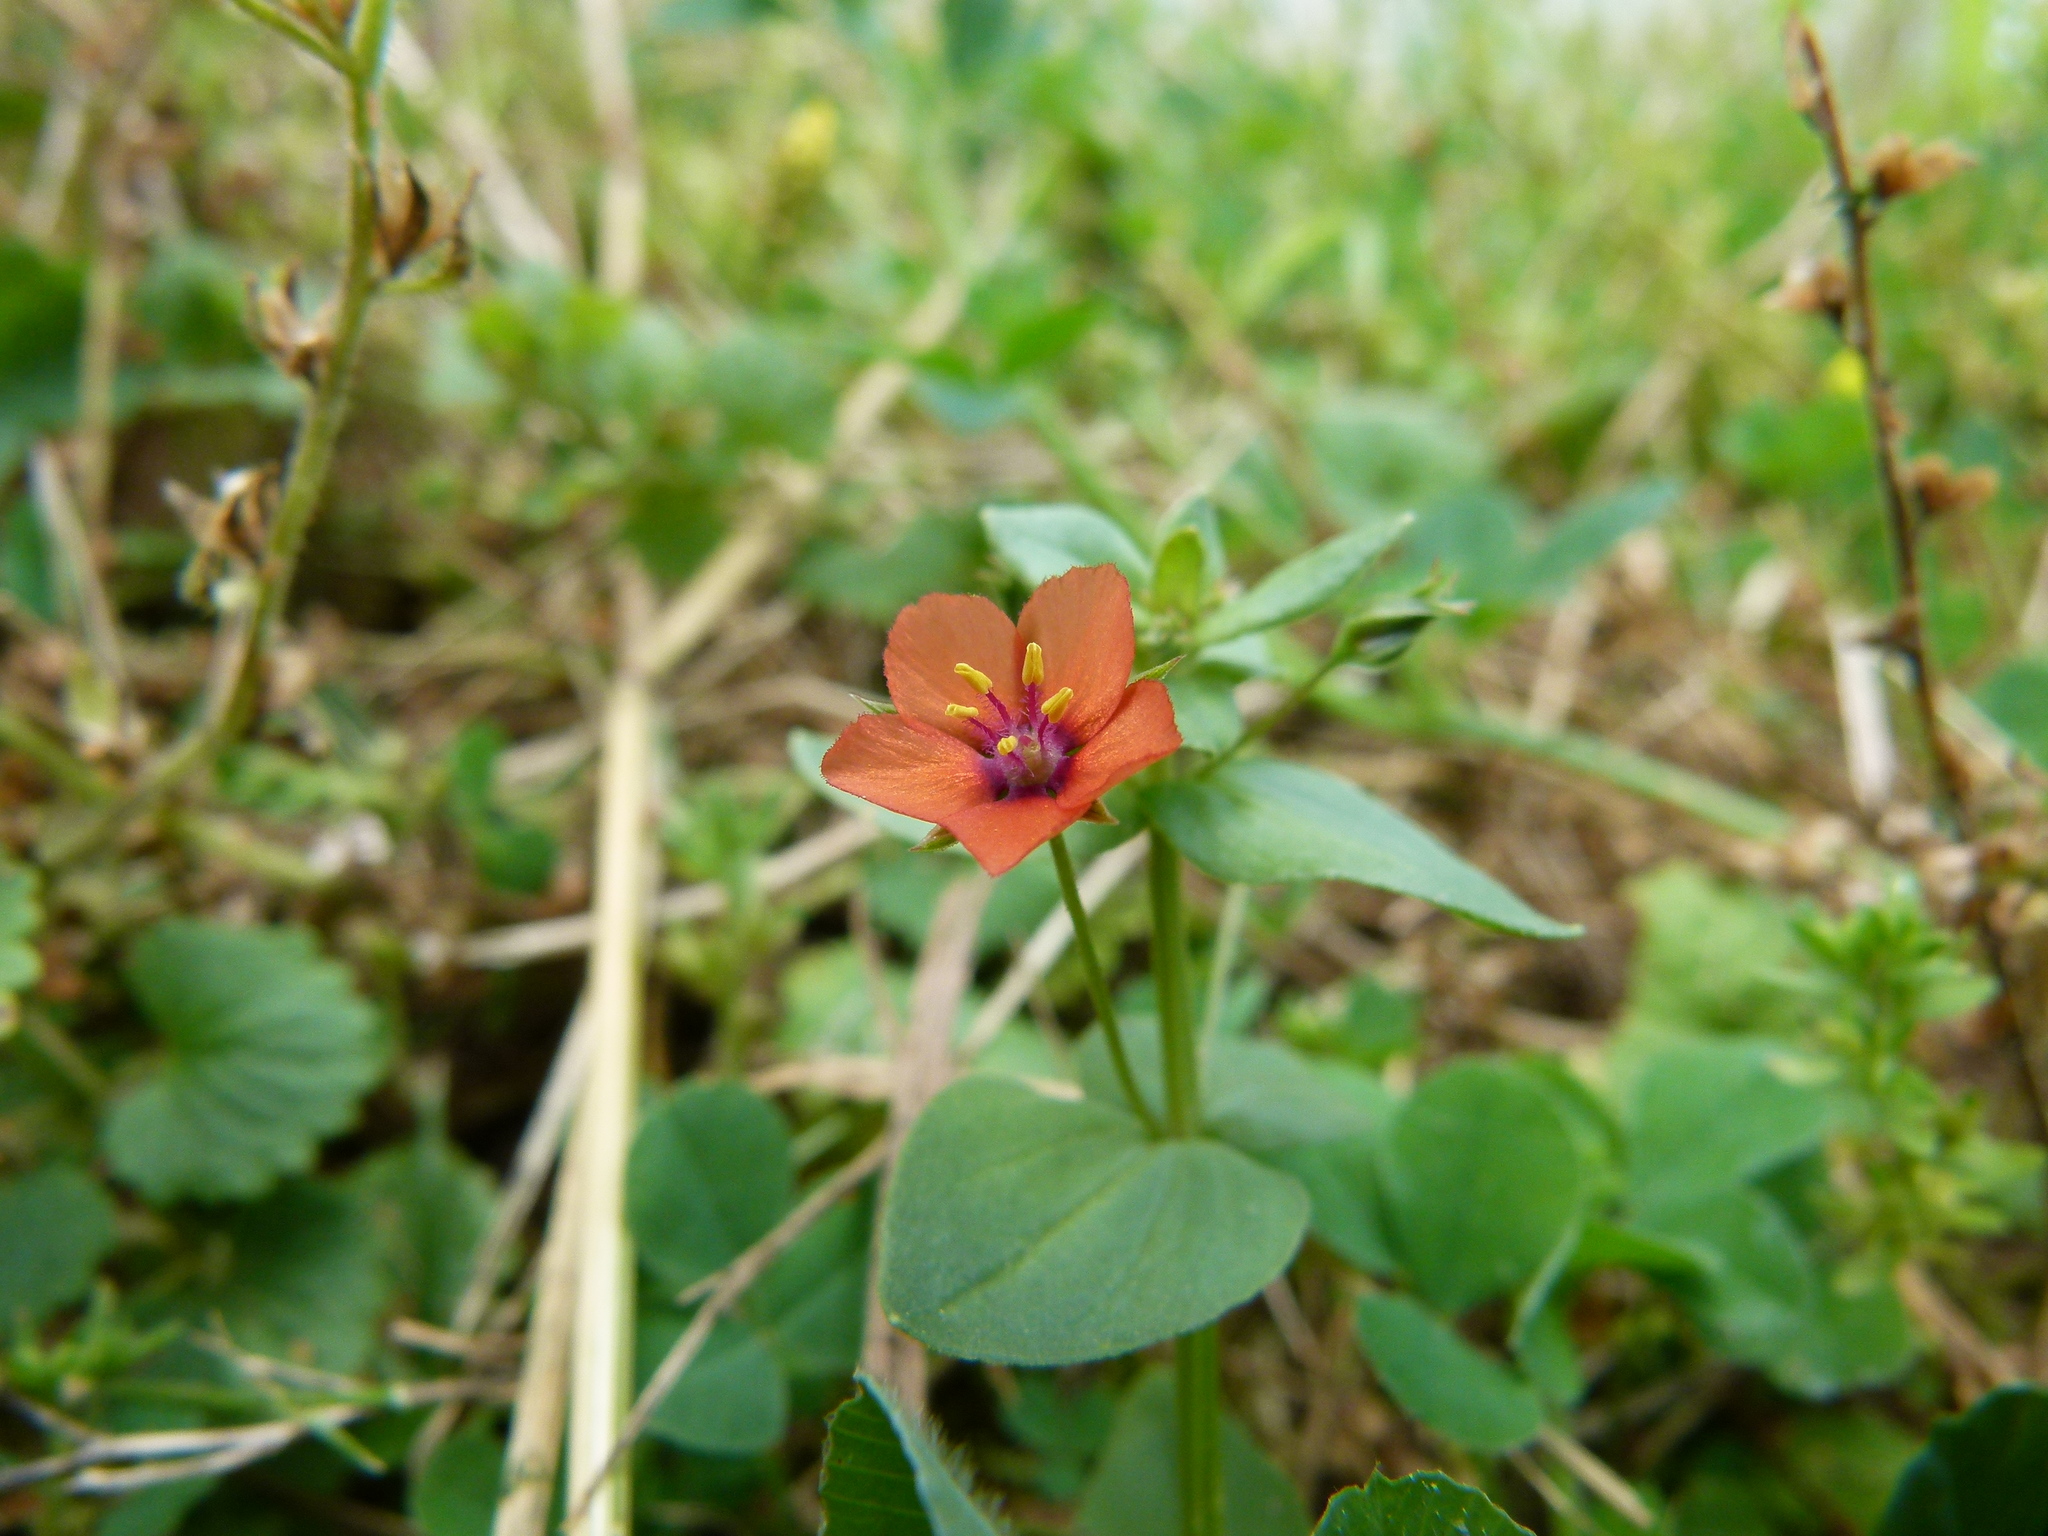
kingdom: Plantae
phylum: Tracheophyta
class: Magnoliopsida
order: Ericales
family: Primulaceae
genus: Lysimachia
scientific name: Lysimachia arvensis
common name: Scarlet pimpernel
